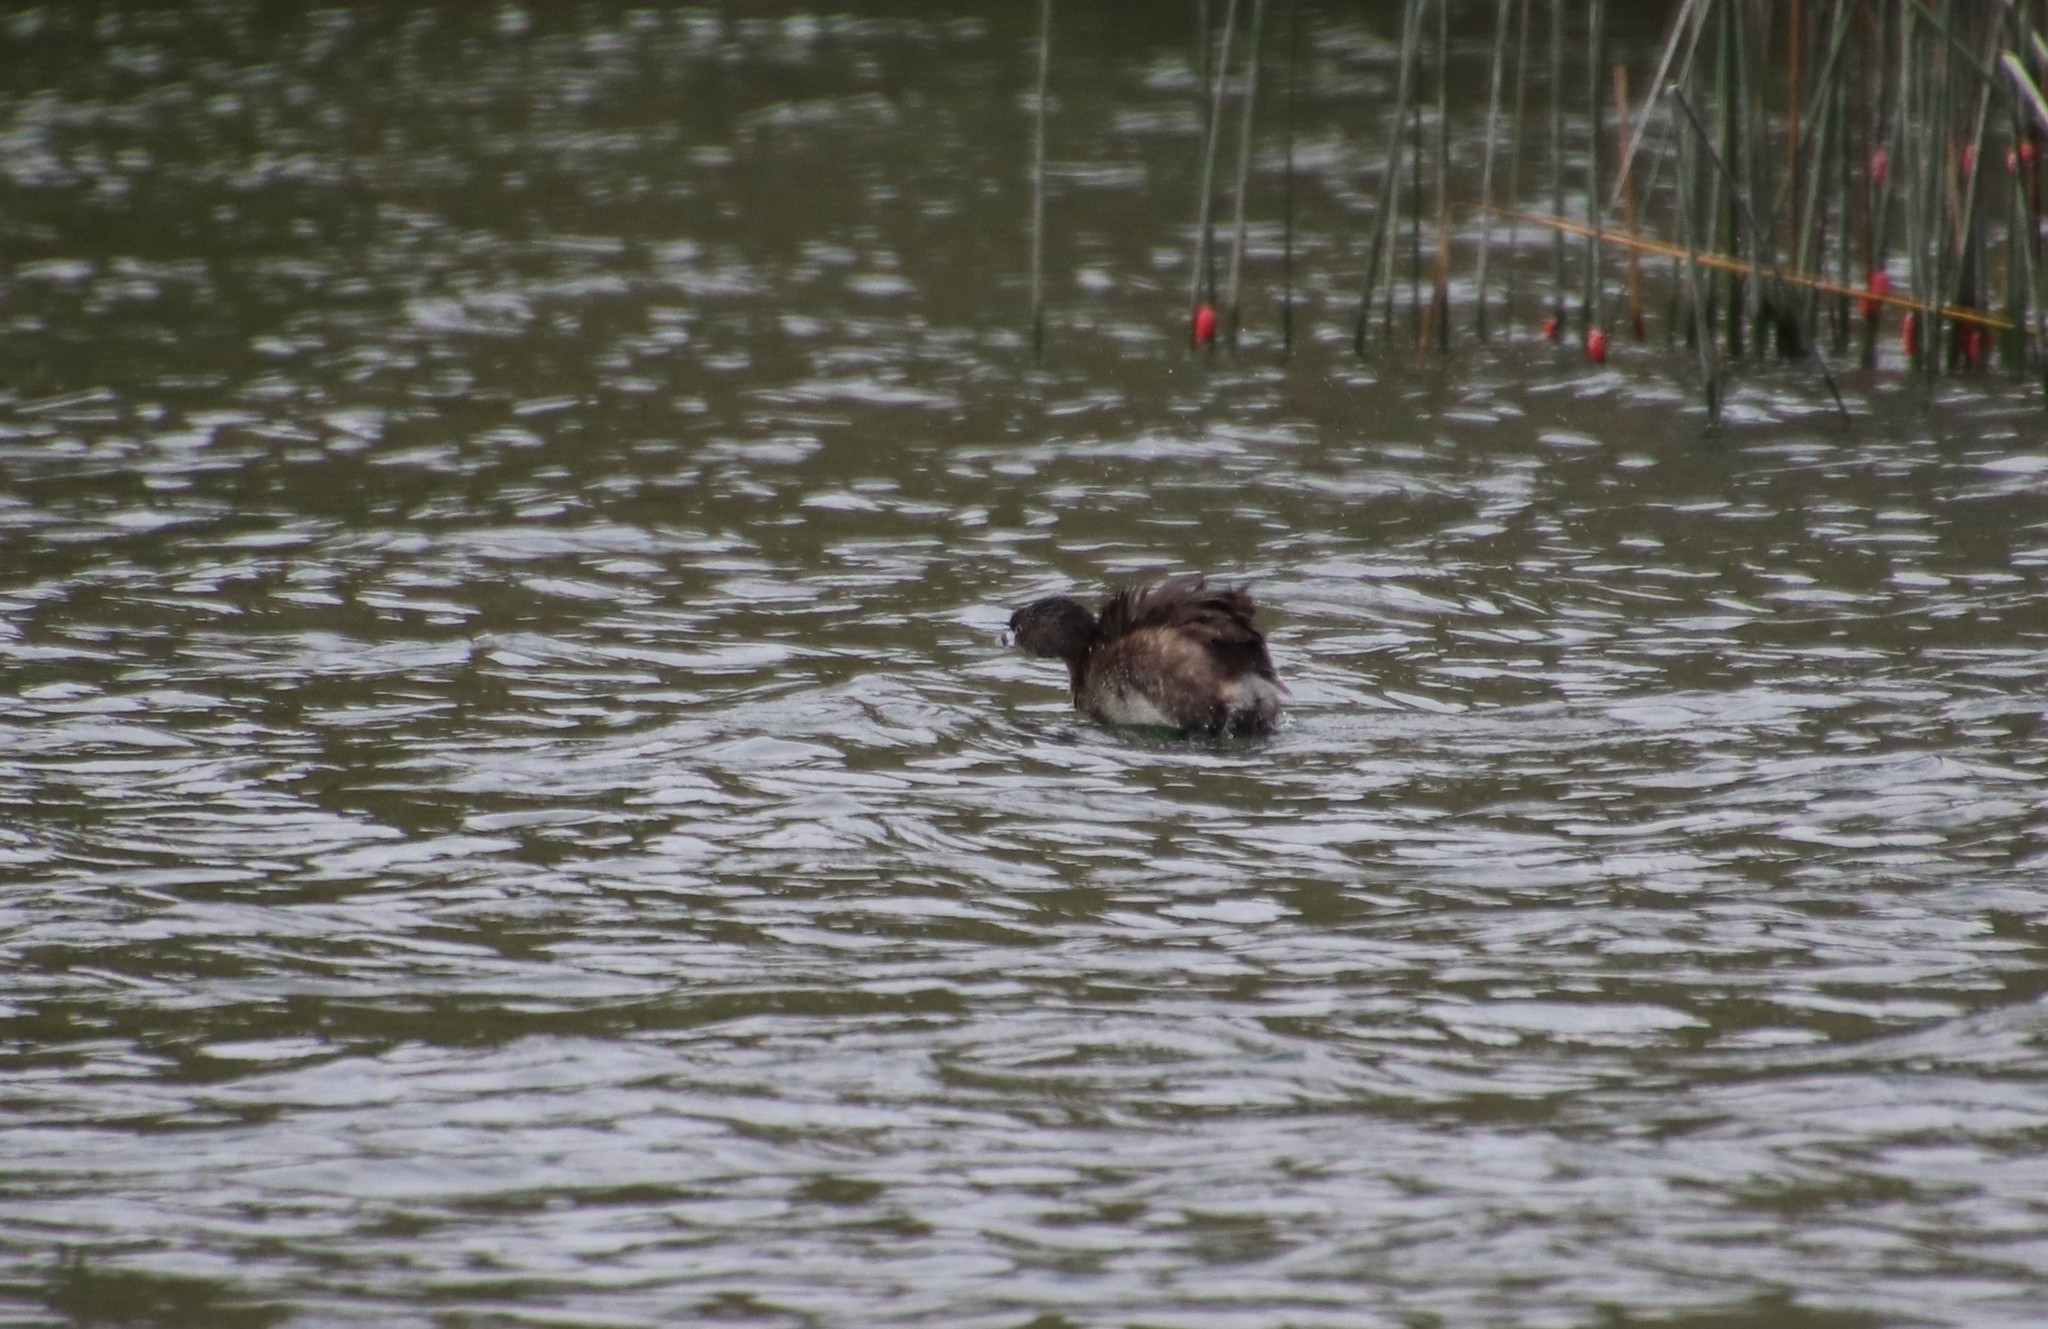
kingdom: Animalia
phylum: Chordata
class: Aves
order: Podicipediformes
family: Podicipedidae
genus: Podilymbus
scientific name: Podilymbus podiceps
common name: Pied-billed grebe
